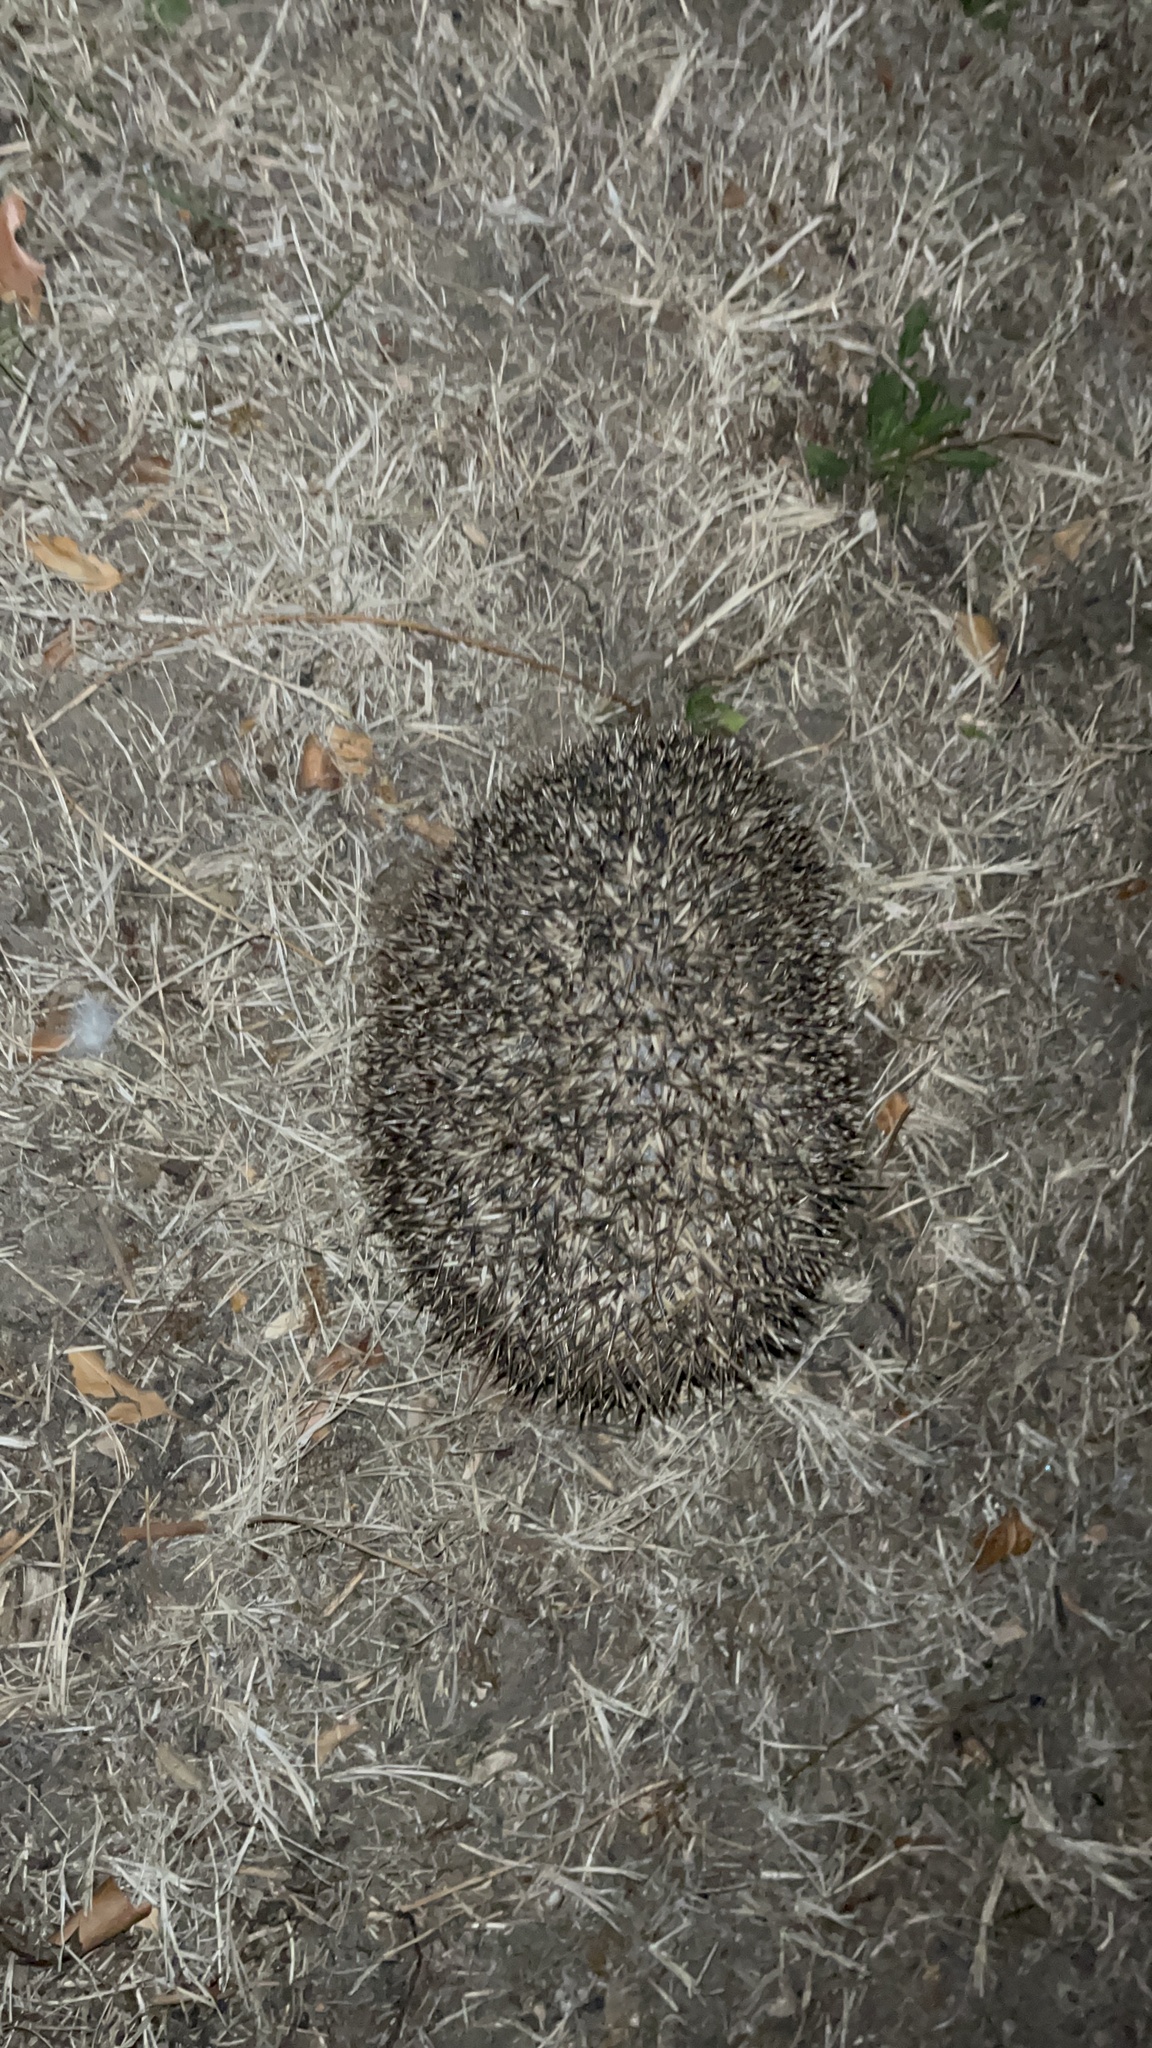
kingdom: Animalia
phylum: Chordata
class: Mammalia
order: Erinaceomorpha
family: Erinaceidae
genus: Erinaceus
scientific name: Erinaceus europaeus
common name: West european hedgehog
